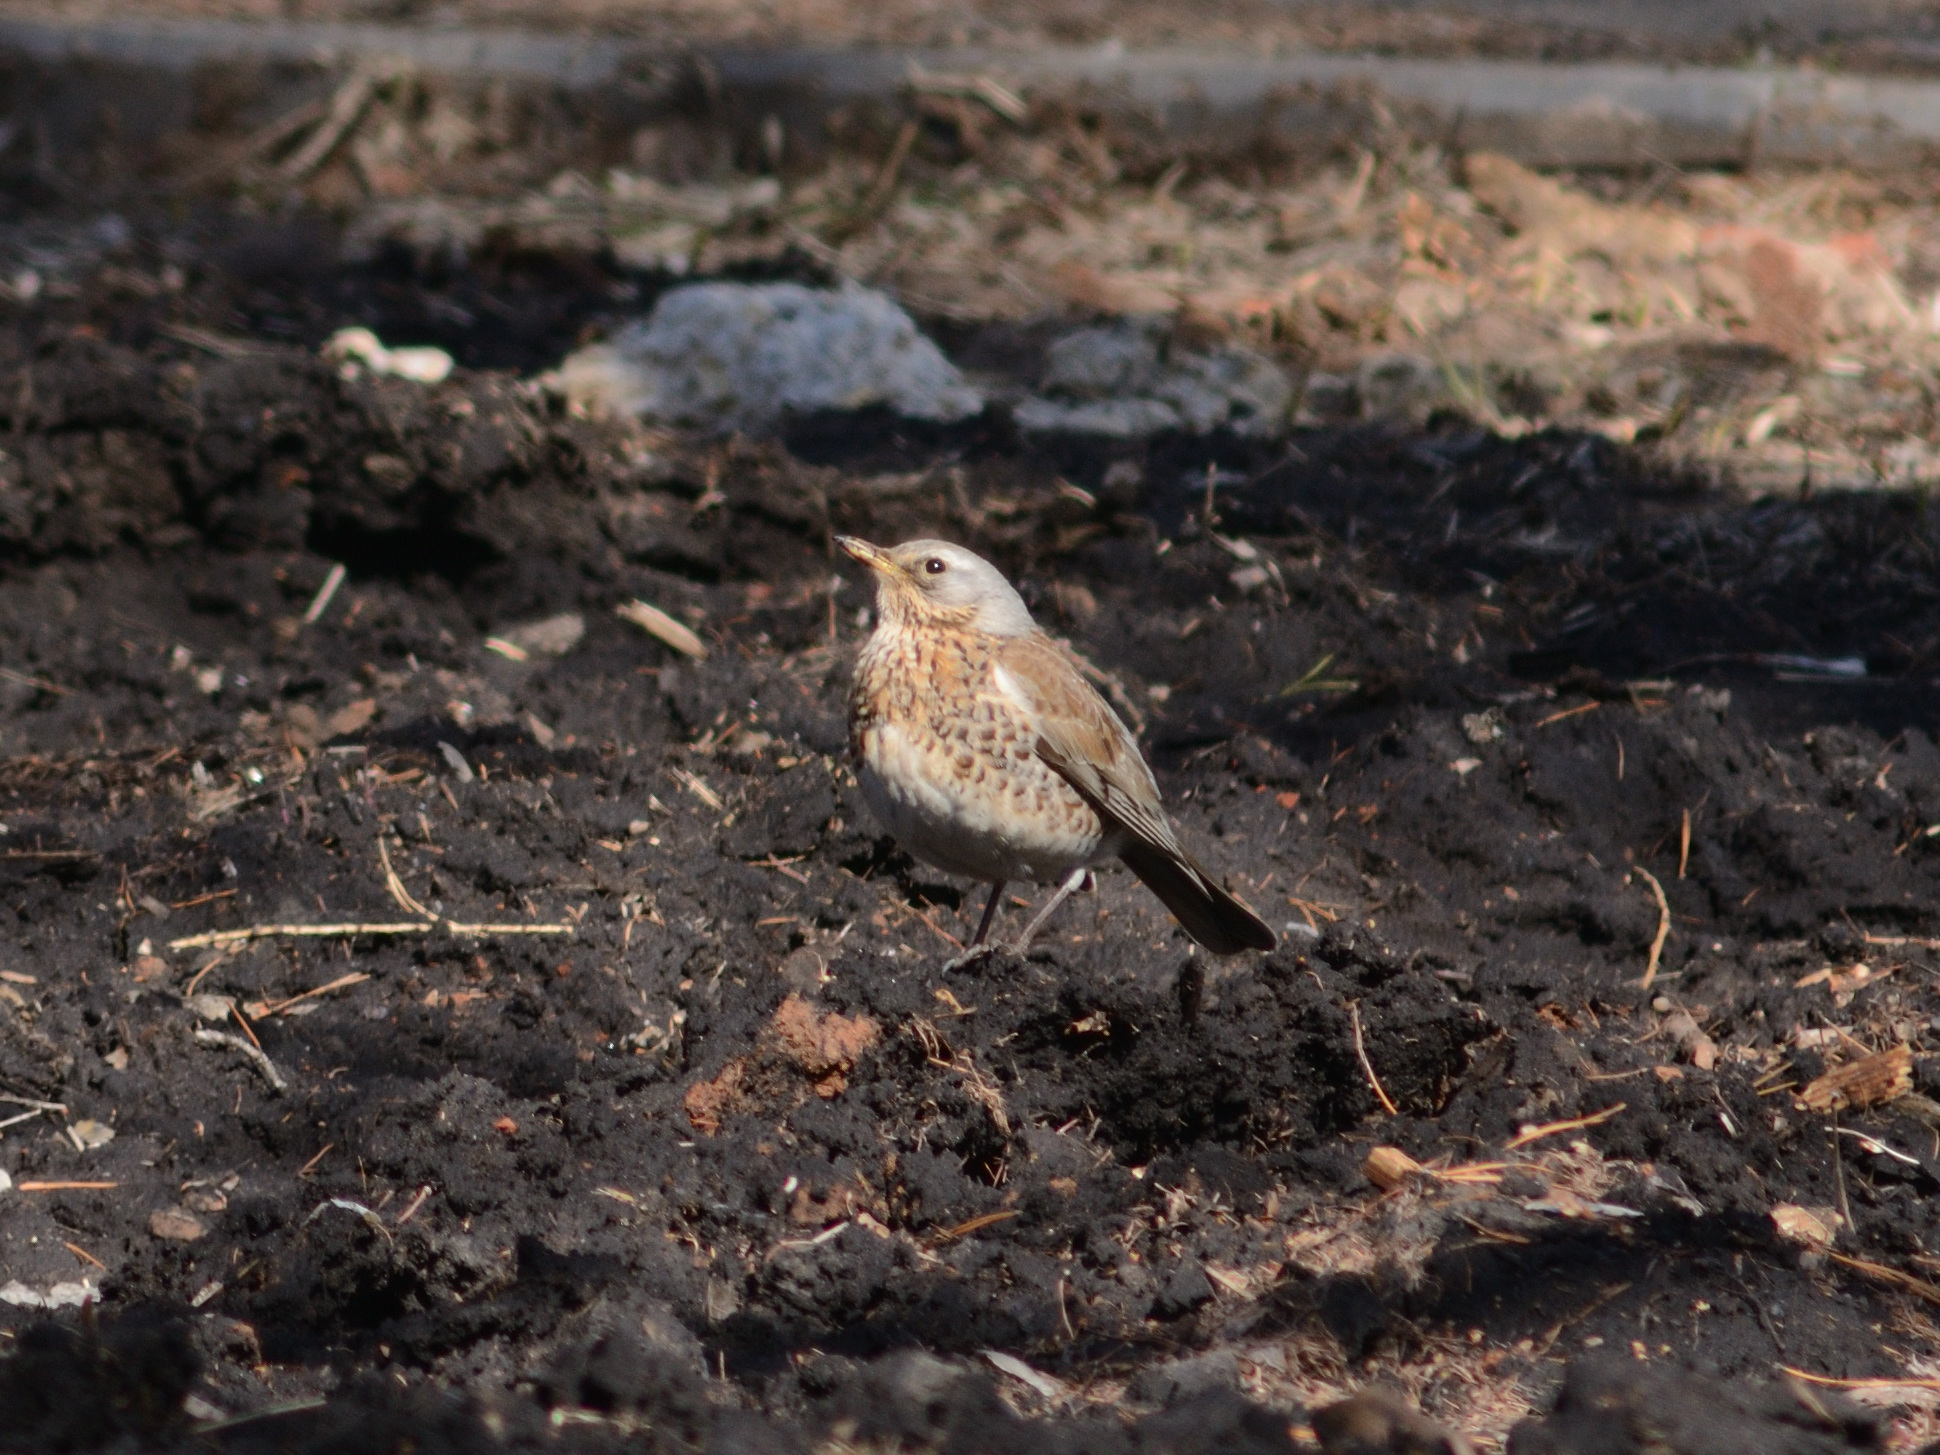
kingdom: Animalia
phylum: Chordata
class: Aves
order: Passeriformes
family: Turdidae
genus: Turdus
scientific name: Turdus pilaris
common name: Fieldfare
